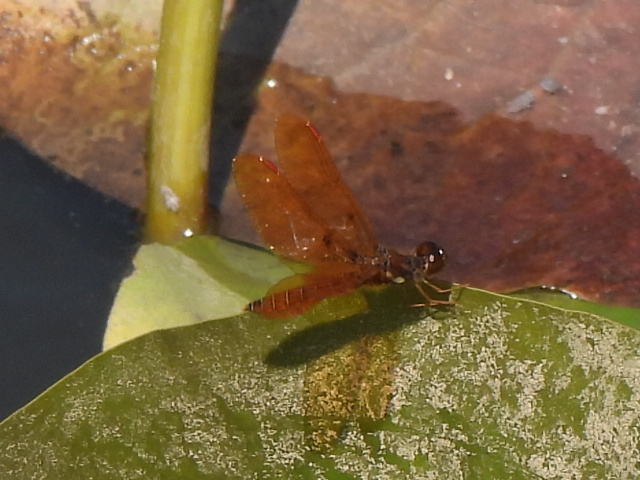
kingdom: Animalia
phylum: Arthropoda
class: Insecta
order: Odonata
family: Libellulidae
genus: Perithemis
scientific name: Perithemis tenera
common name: Eastern amberwing
